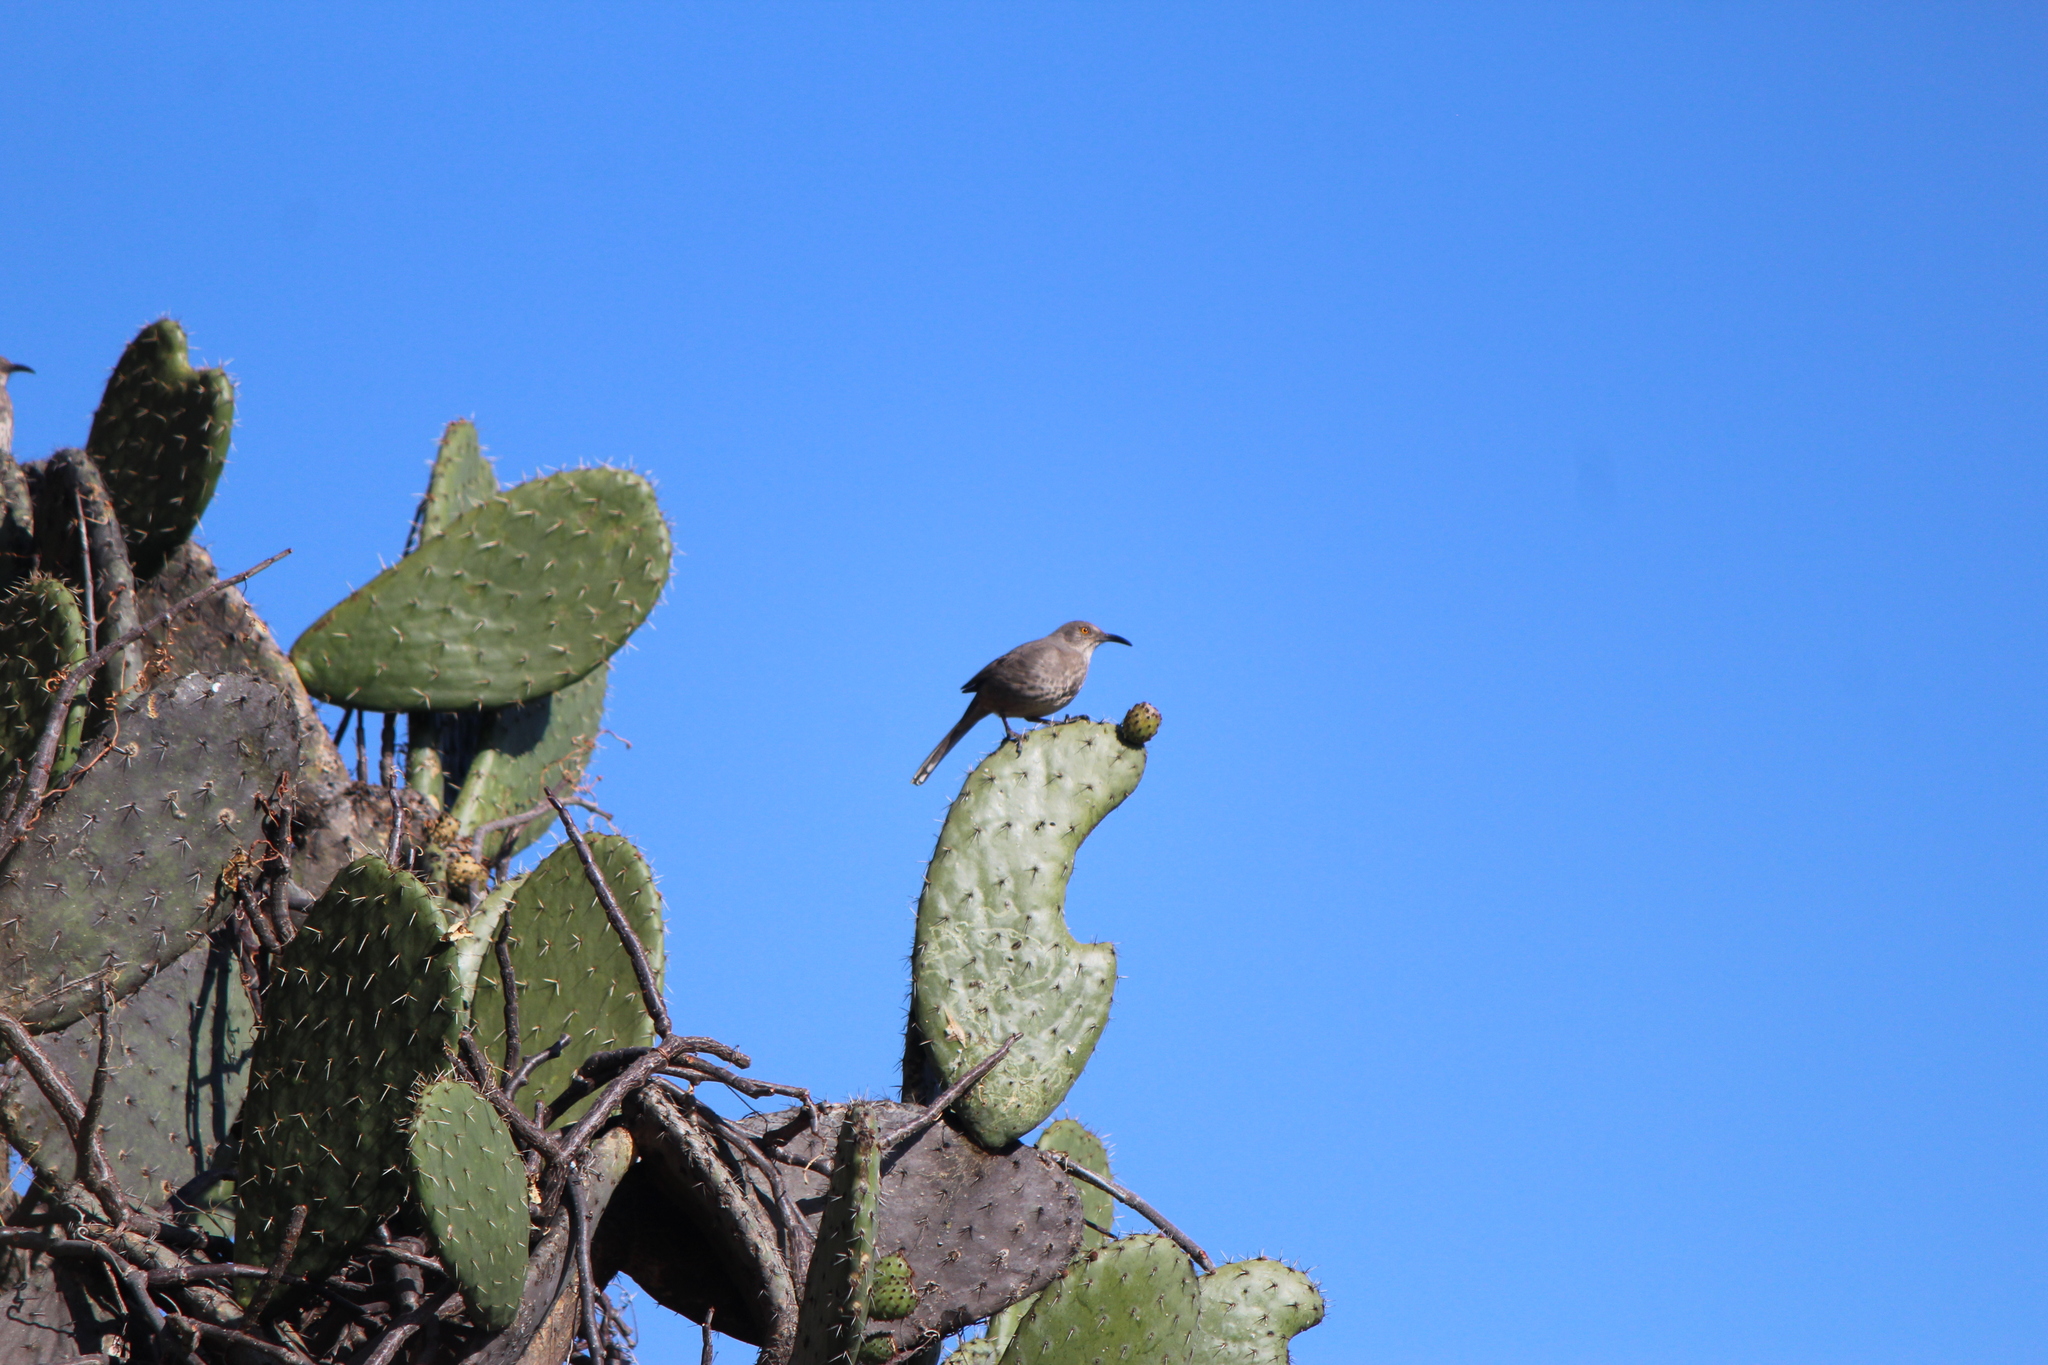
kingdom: Animalia
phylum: Chordata
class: Aves
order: Passeriformes
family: Mimidae
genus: Toxostoma
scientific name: Toxostoma curvirostre
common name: Curve-billed thrasher
